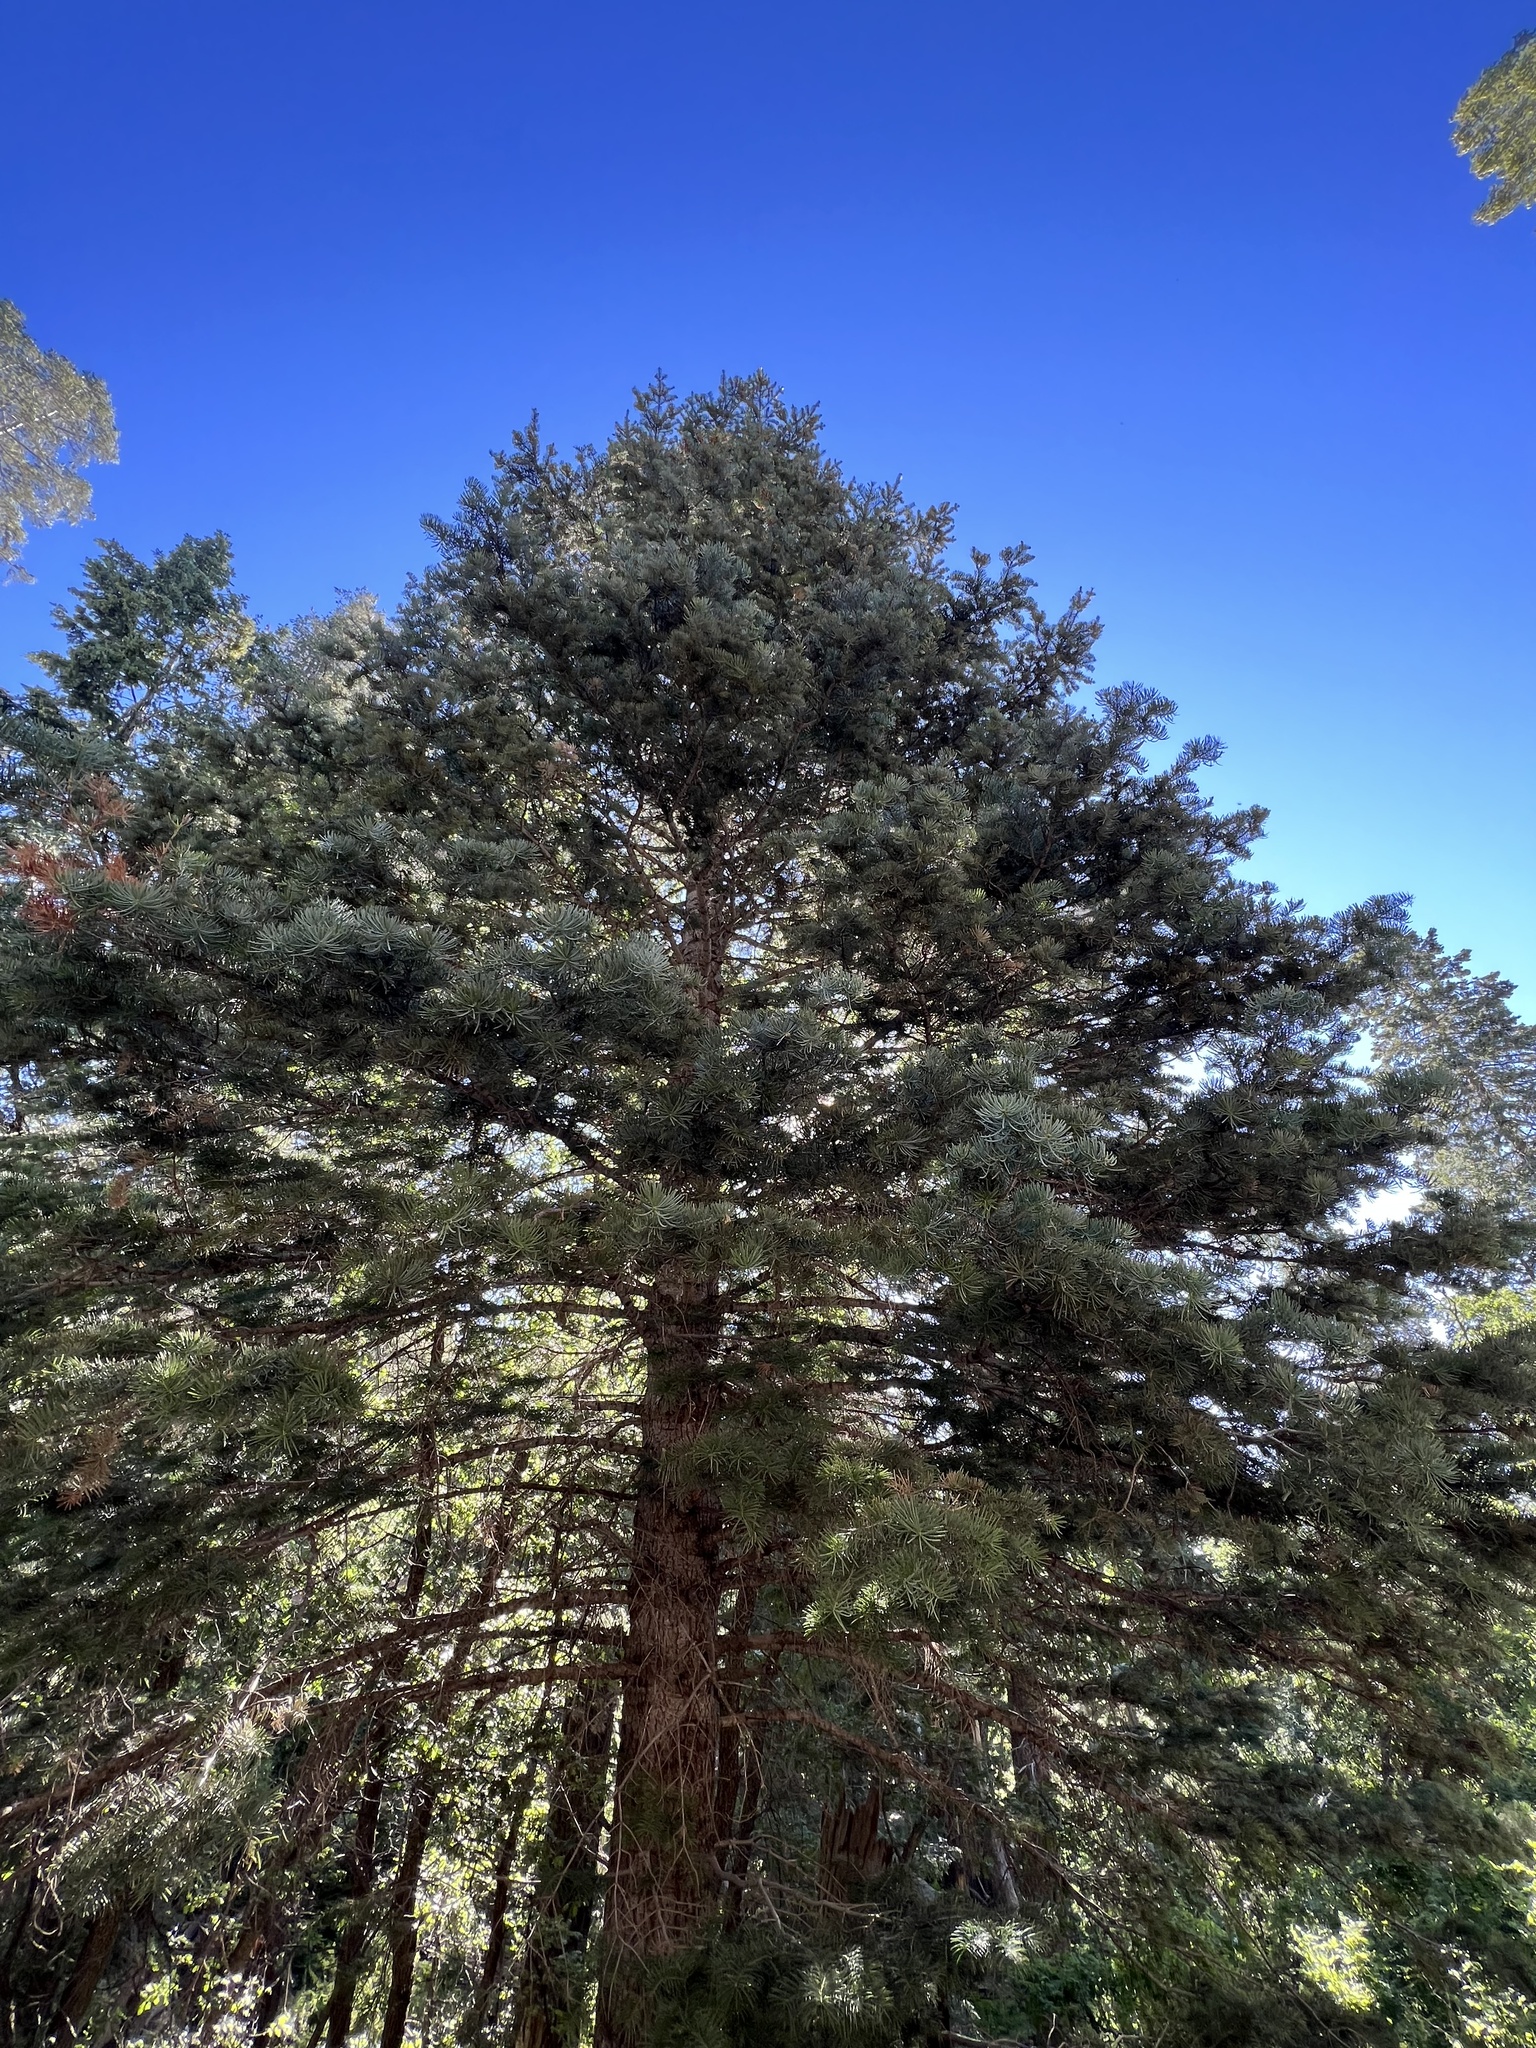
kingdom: Plantae
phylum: Tracheophyta
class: Pinopsida
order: Pinales
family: Pinaceae
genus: Abies
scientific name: Abies concolor
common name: Colorado fir
